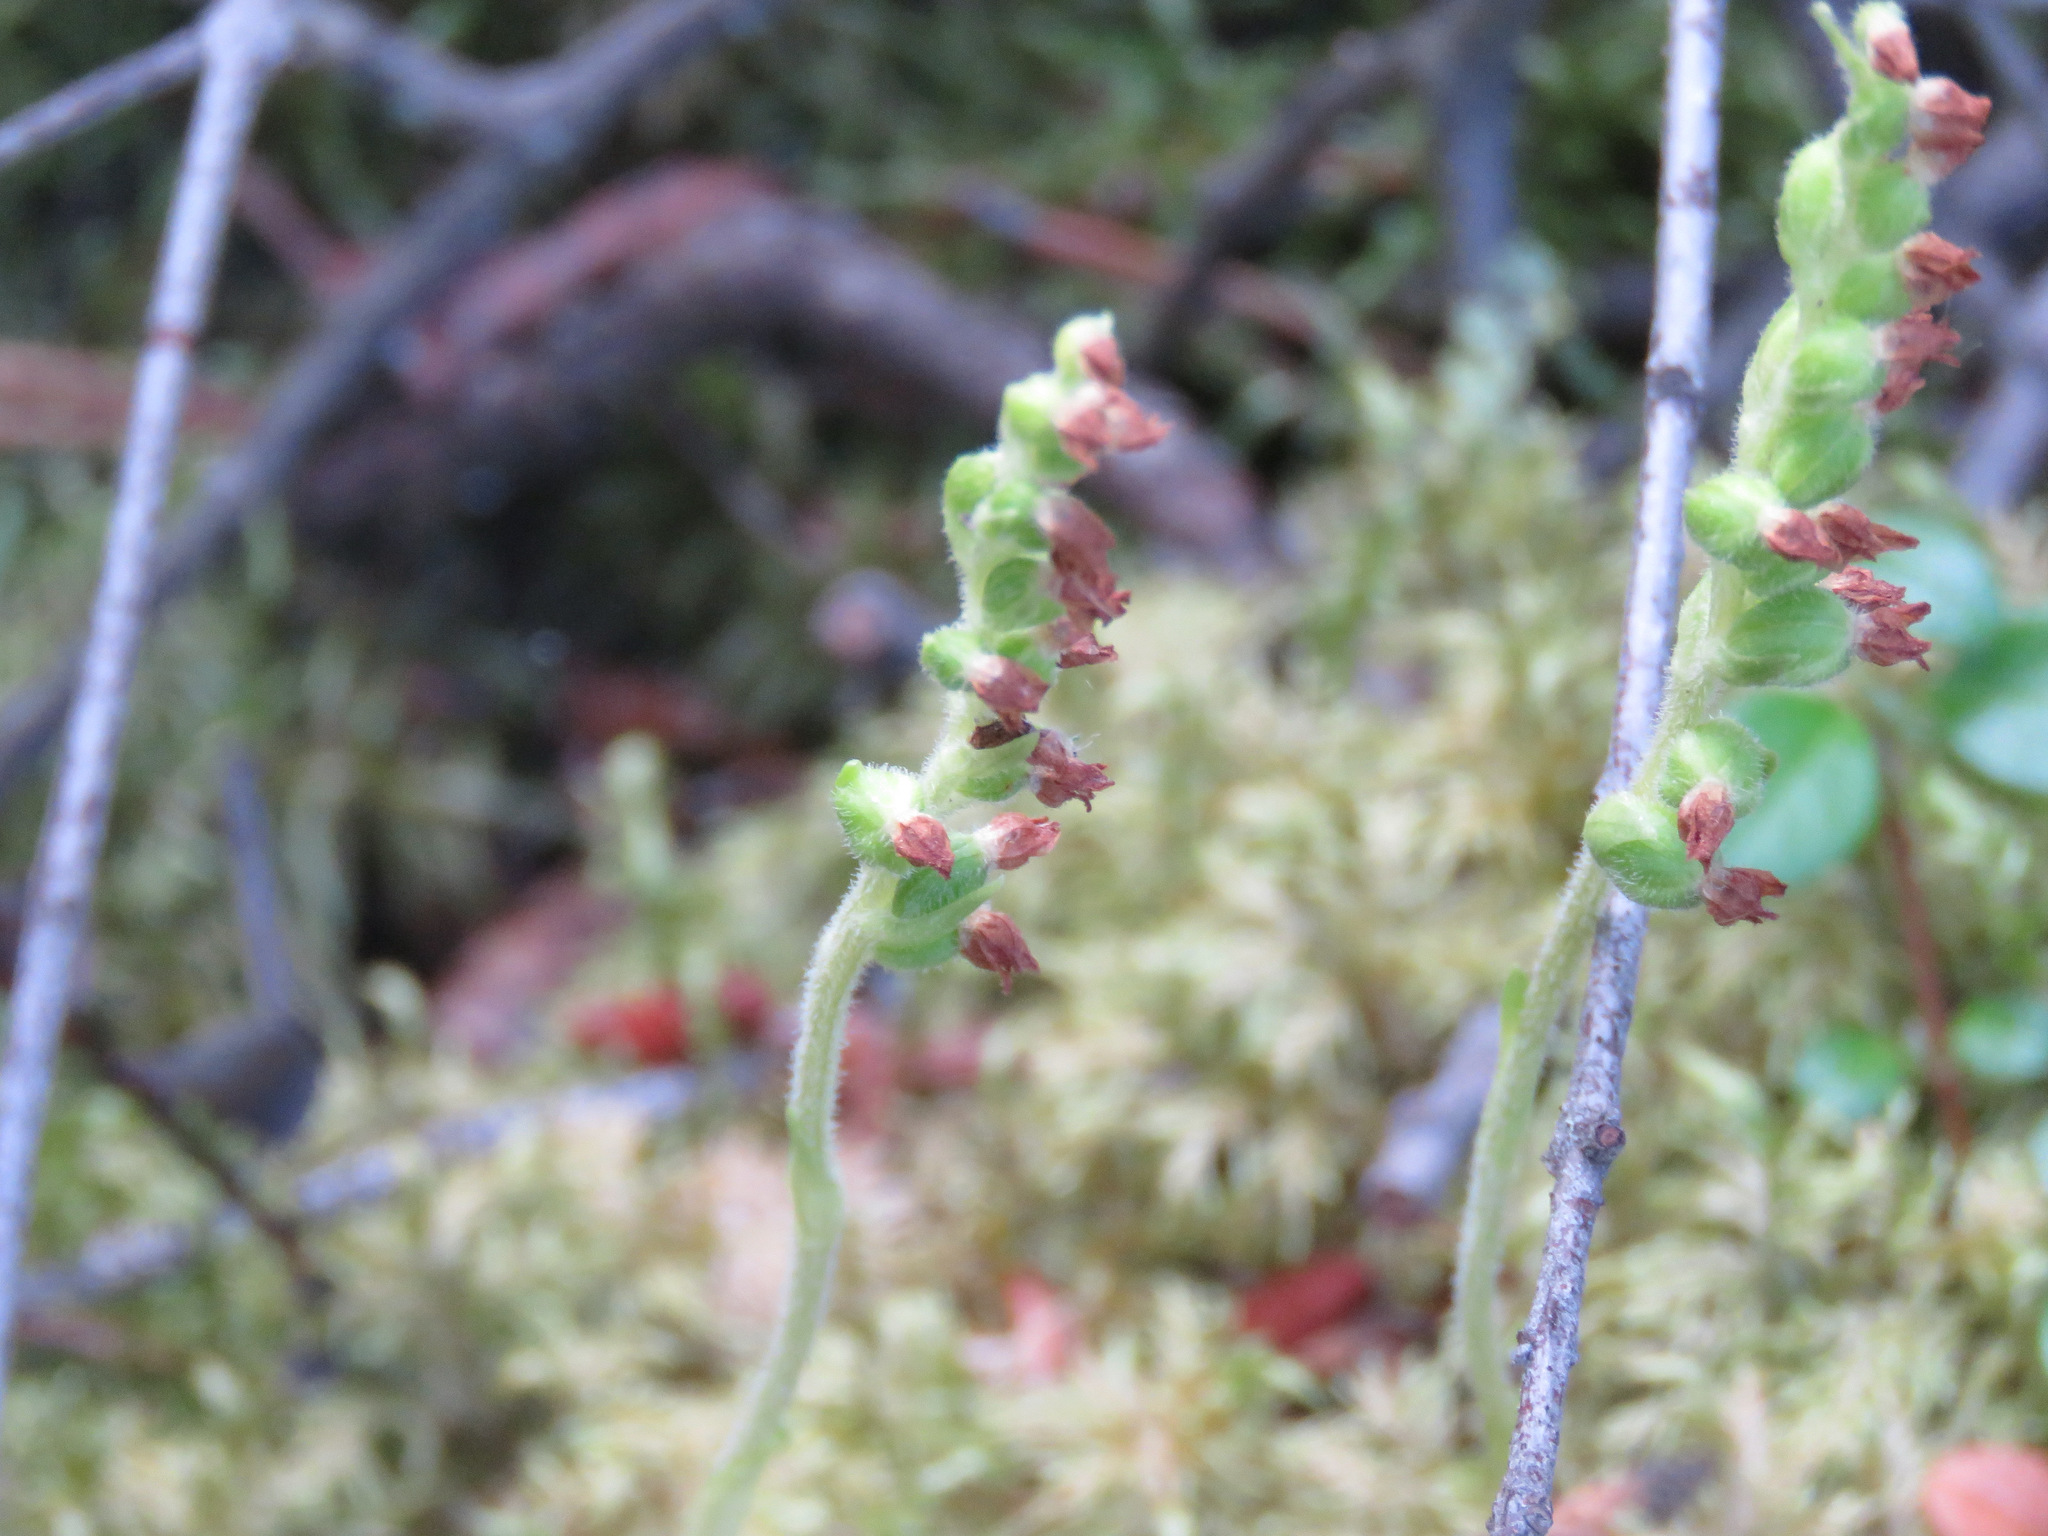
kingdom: Plantae
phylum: Tracheophyta
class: Liliopsida
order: Asparagales
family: Orchidaceae
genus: Goodyera
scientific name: Goodyera repens
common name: Creeping lady's-tresses
